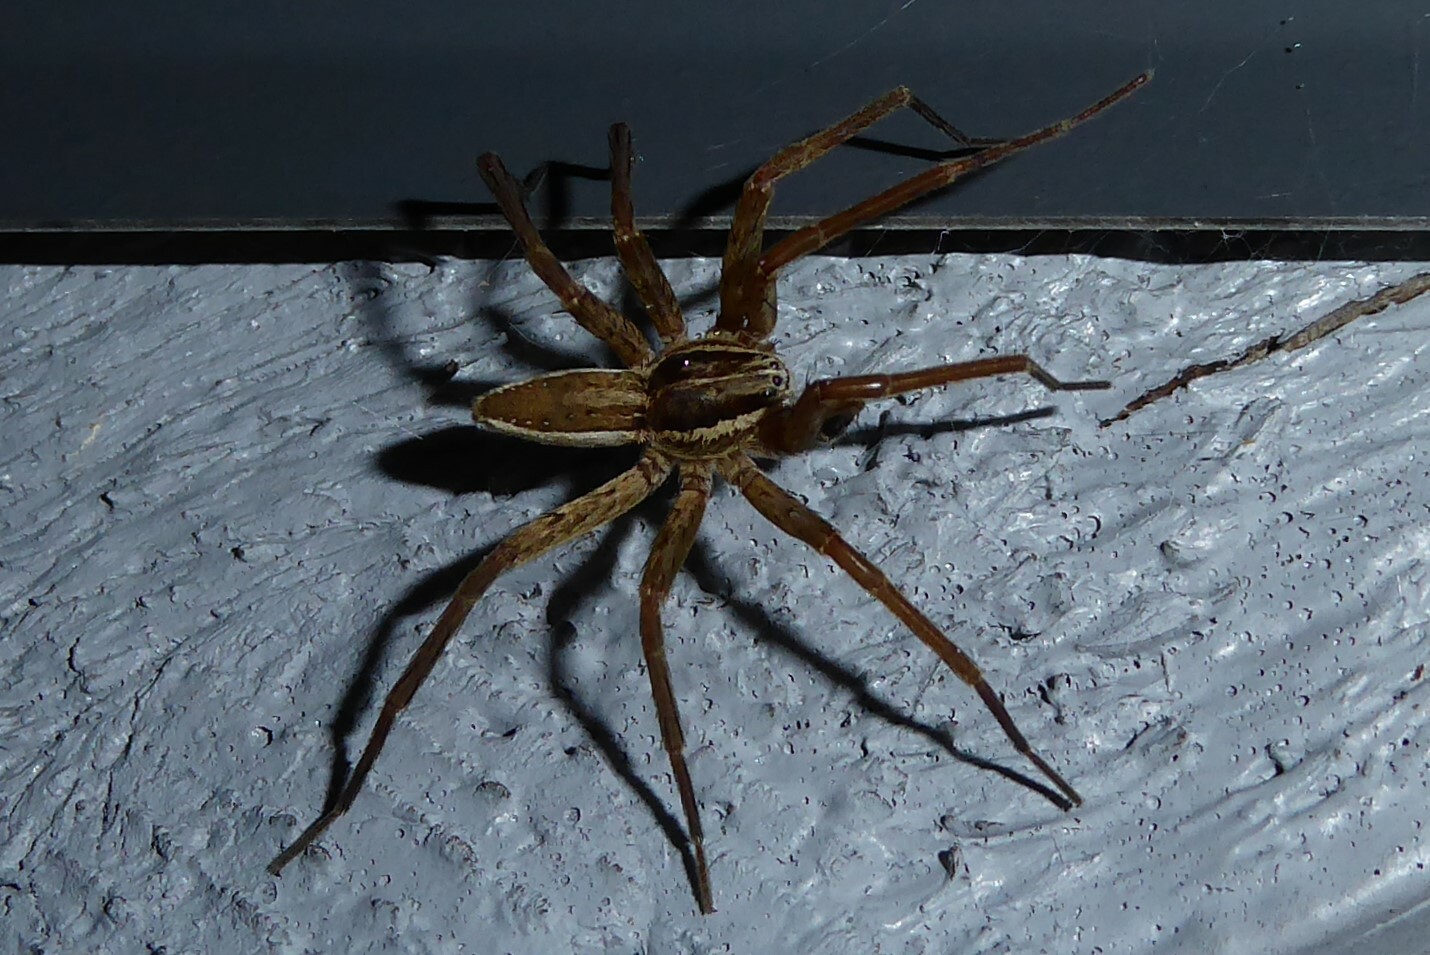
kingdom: Animalia
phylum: Arthropoda
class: Arachnida
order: Araneae
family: Pisauridae
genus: Dolomedes
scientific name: Dolomedes minor
